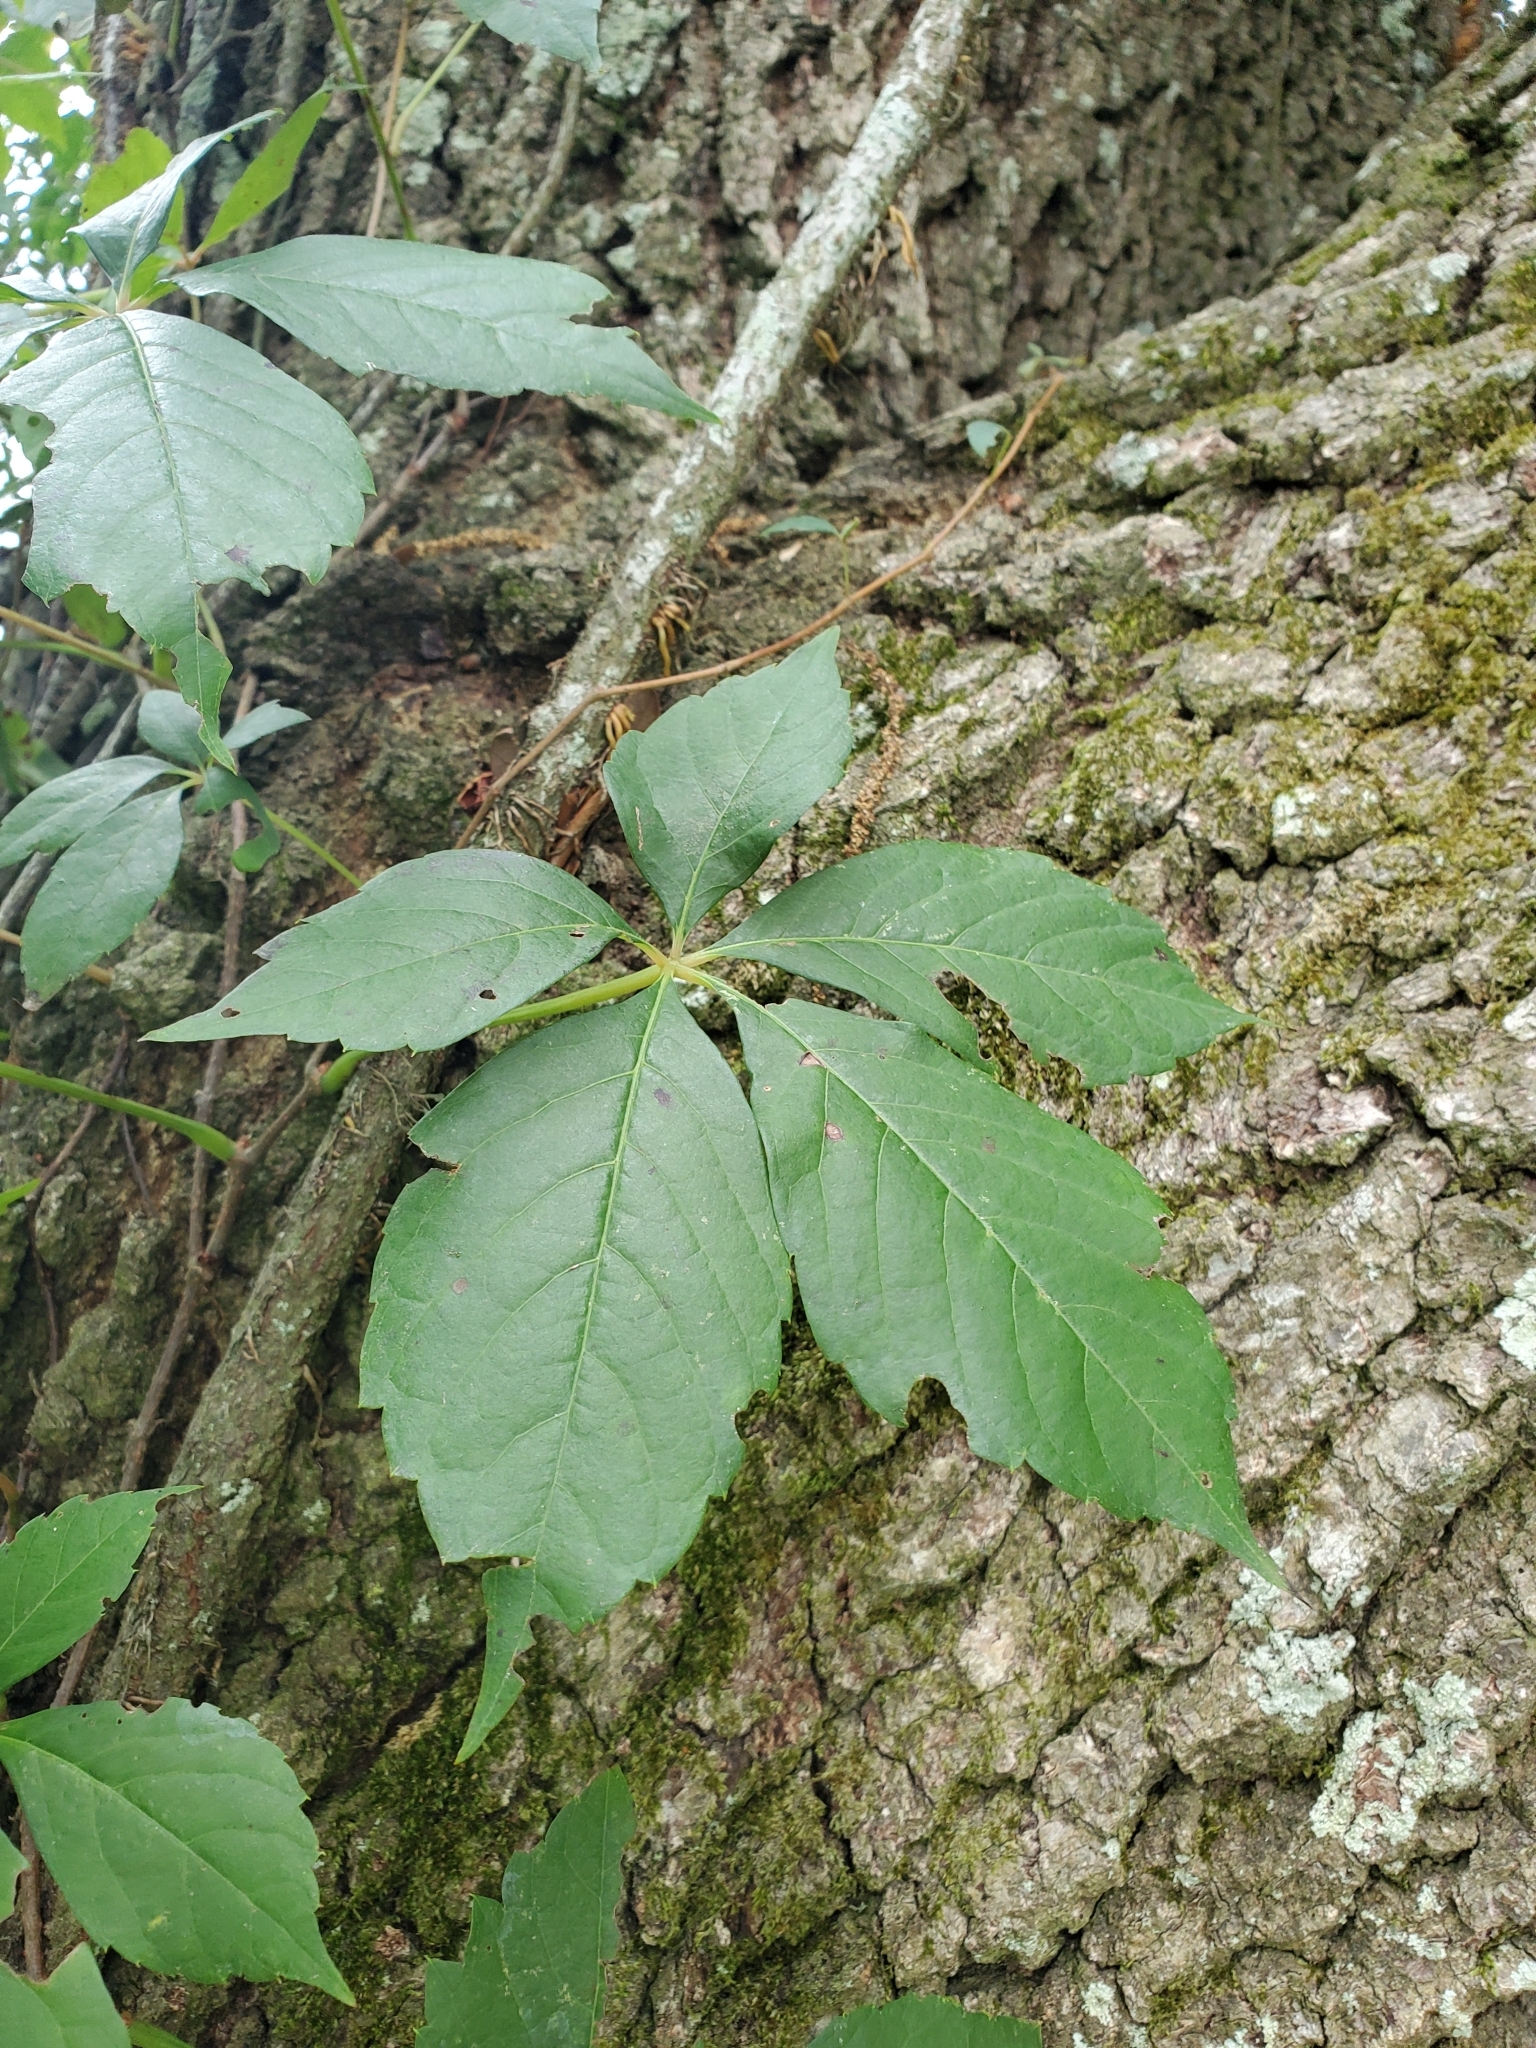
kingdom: Plantae
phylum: Tracheophyta
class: Magnoliopsida
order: Vitales
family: Vitaceae
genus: Parthenocissus
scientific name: Parthenocissus quinquefolia
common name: Virginia-creeper
